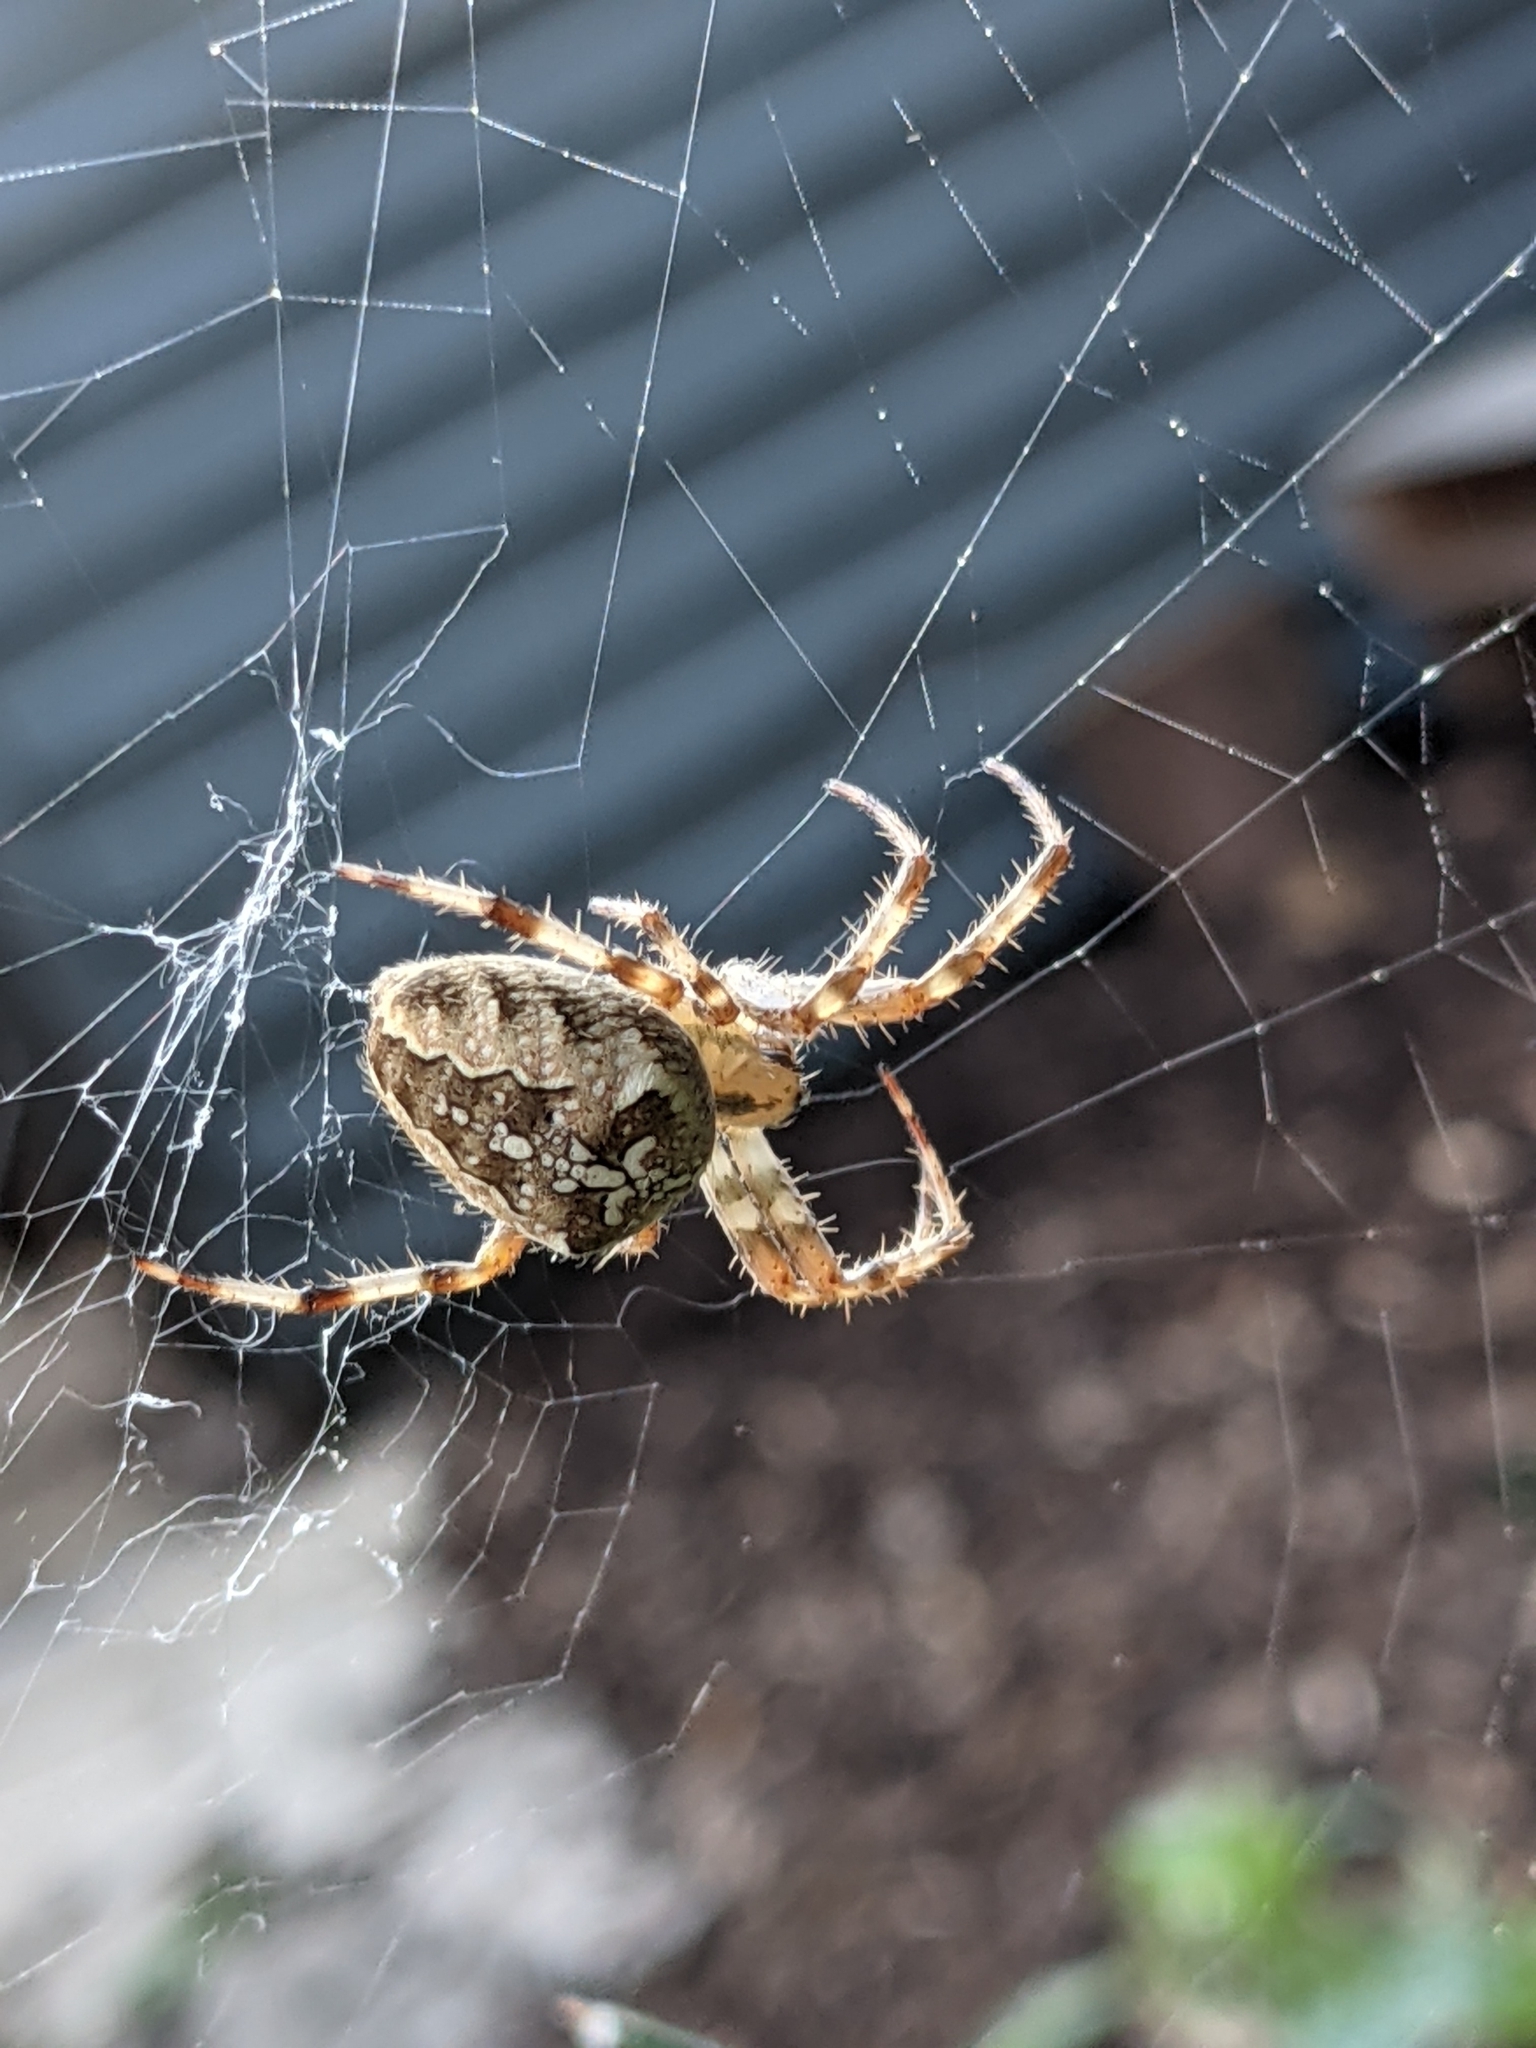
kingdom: Animalia
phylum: Arthropoda
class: Arachnida
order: Araneae
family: Araneidae
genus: Araneus
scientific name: Araneus diadematus
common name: Cross orbweaver
